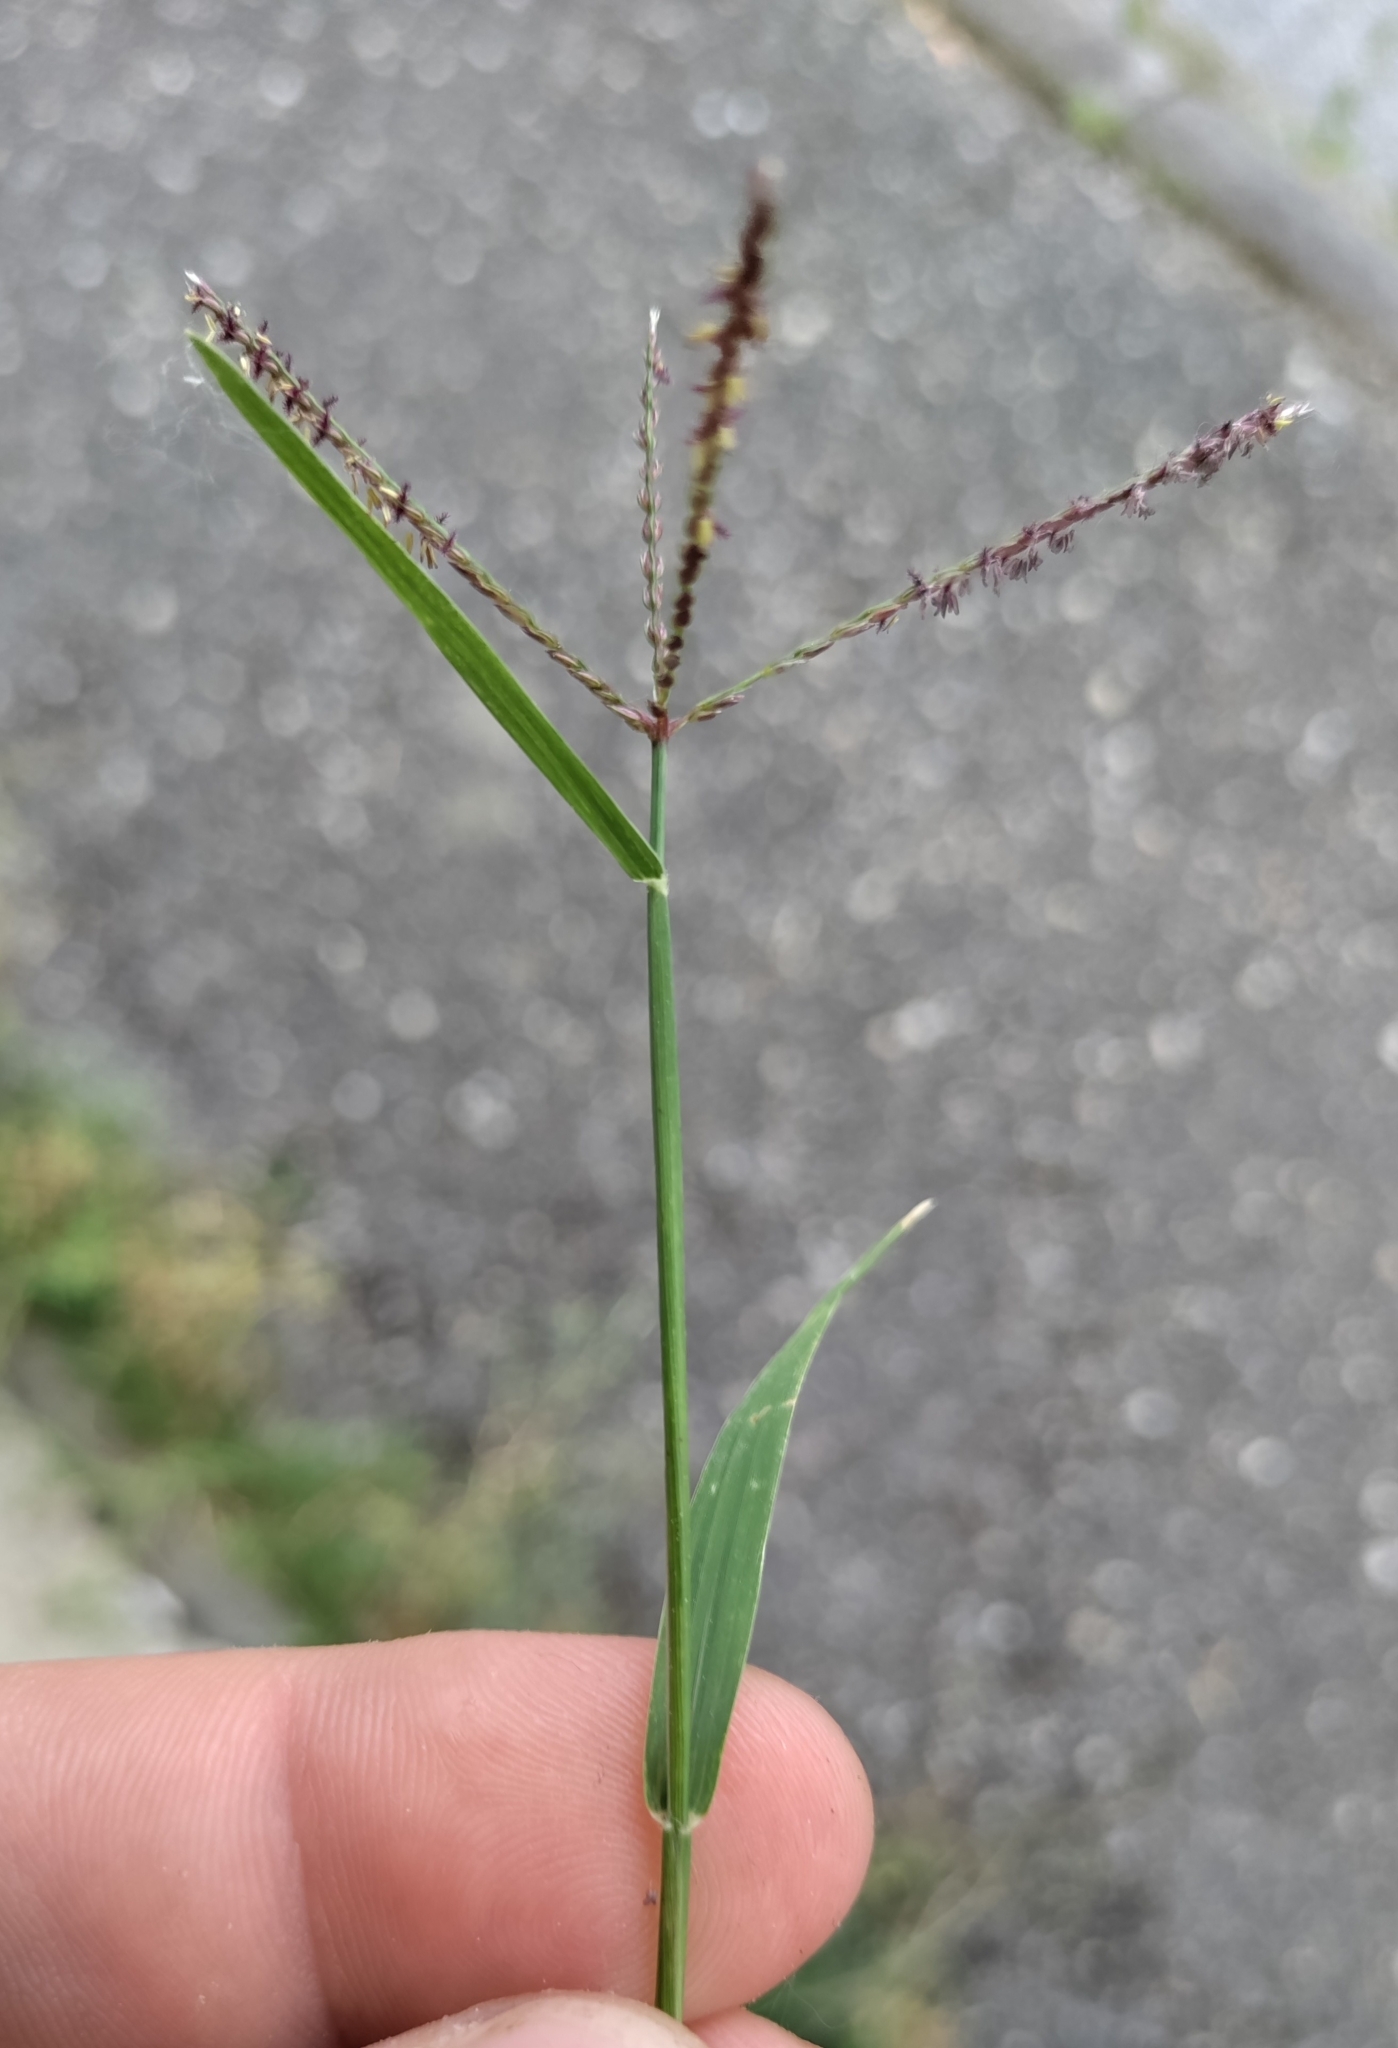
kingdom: Plantae
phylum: Tracheophyta
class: Liliopsida
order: Poales
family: Poaceae
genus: Cynodon
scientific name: Cynodon dactylon
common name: Bermuda grass
